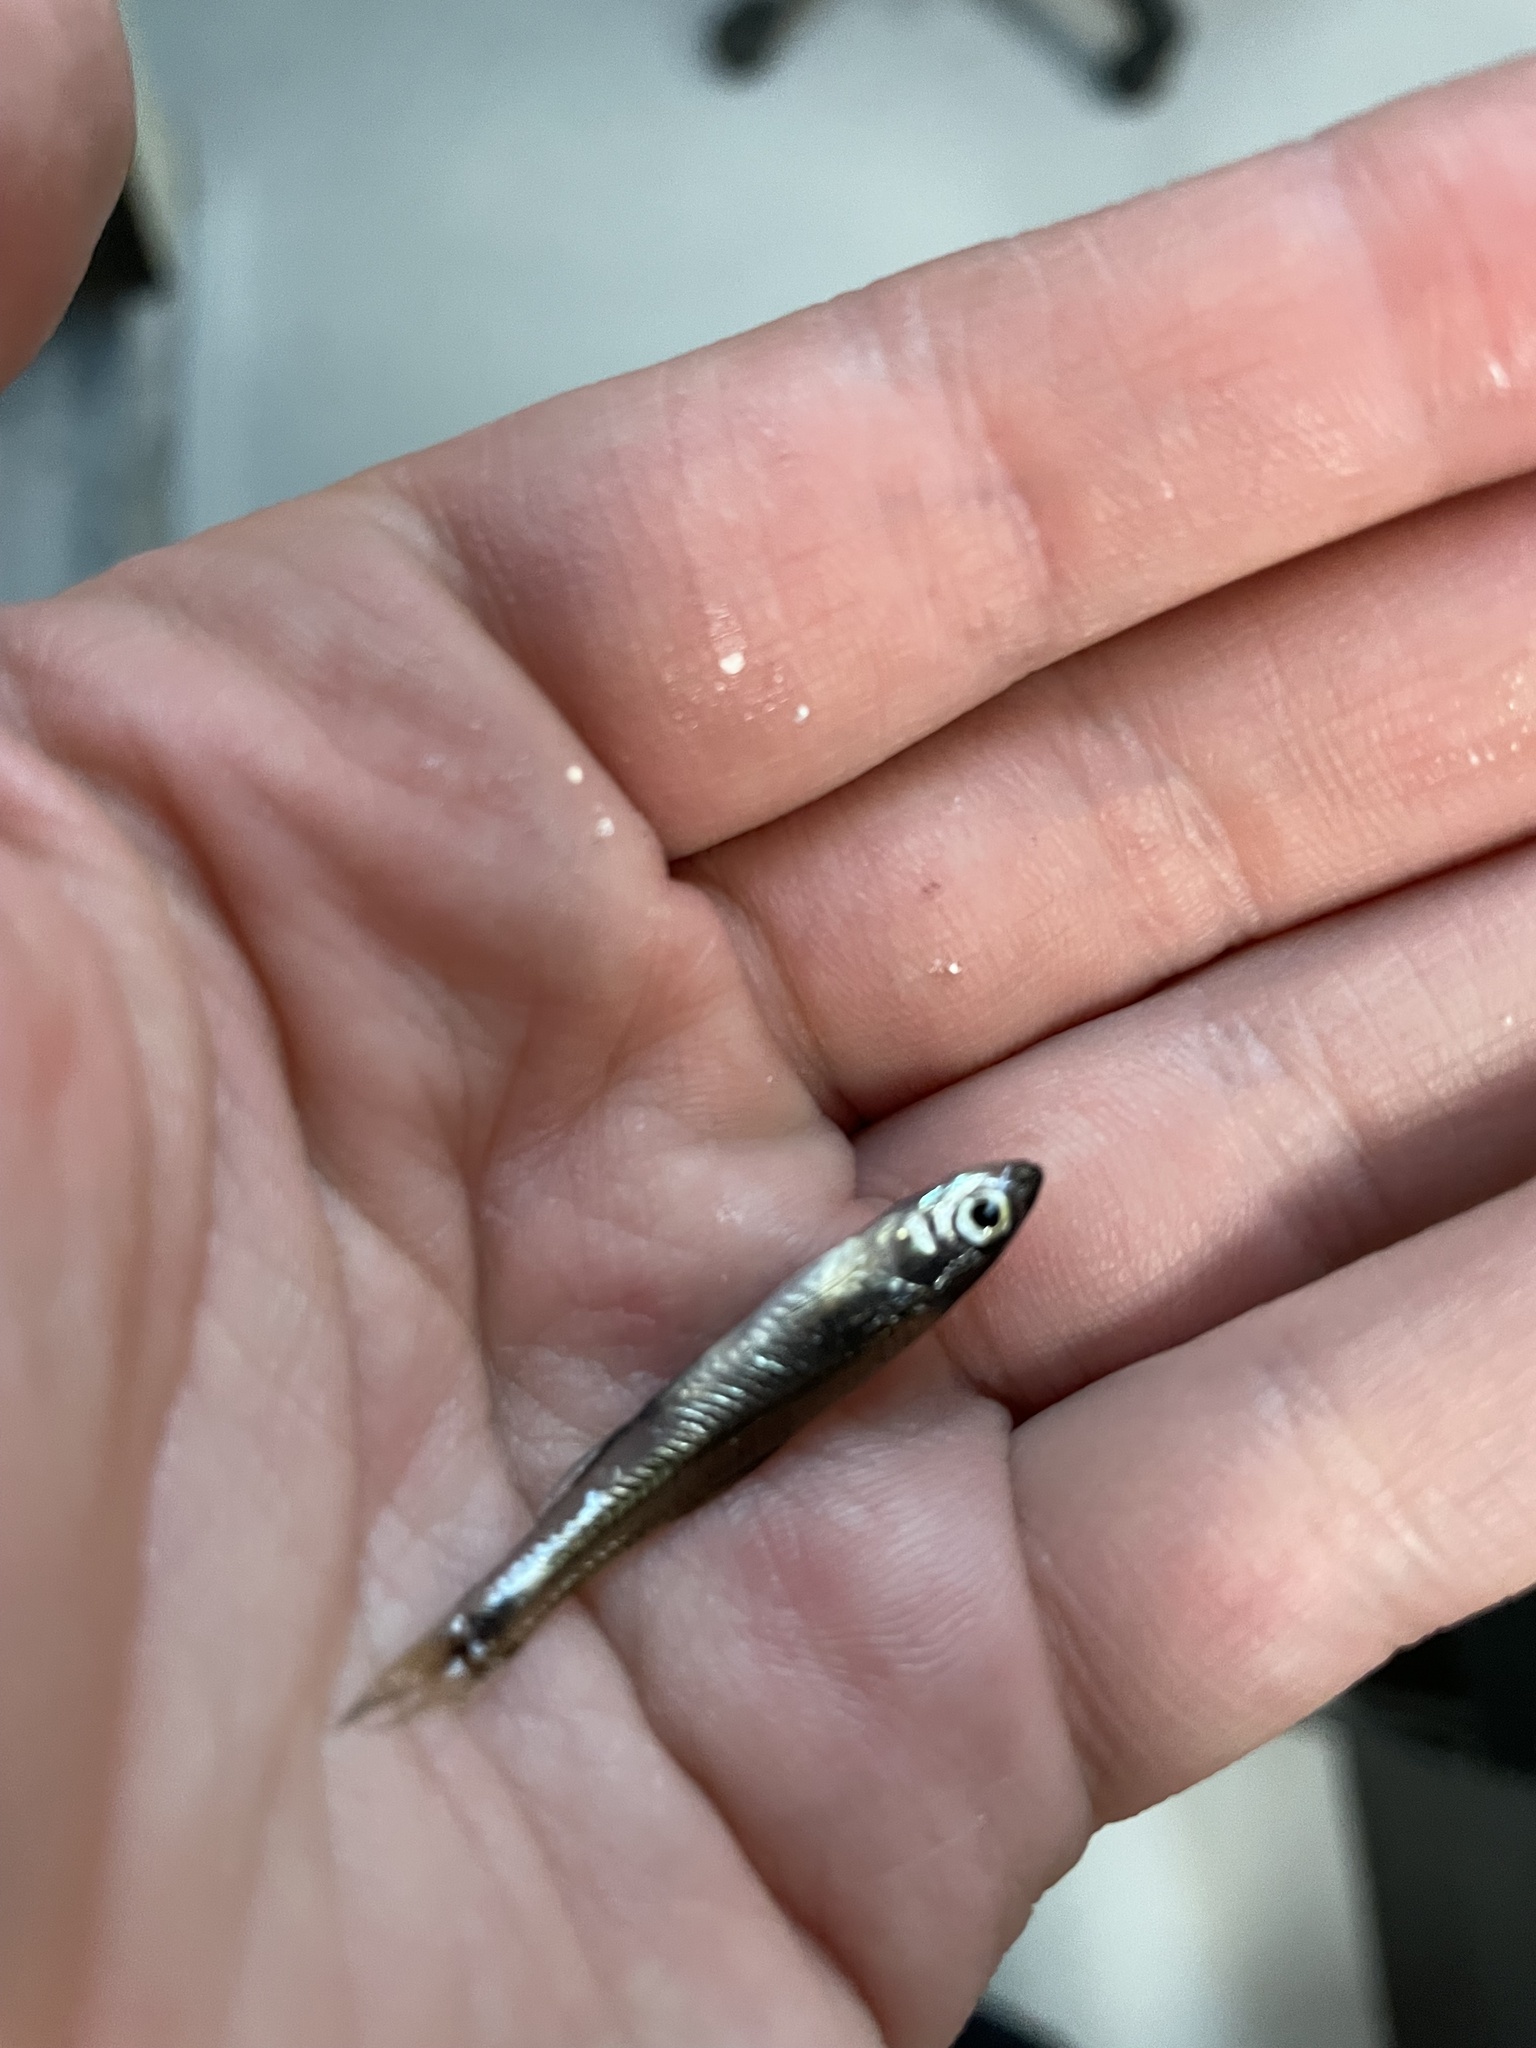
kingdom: Animalia
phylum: Chordata
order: Cypriniformes
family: Cyprinidae
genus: Notropis
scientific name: Notropis
